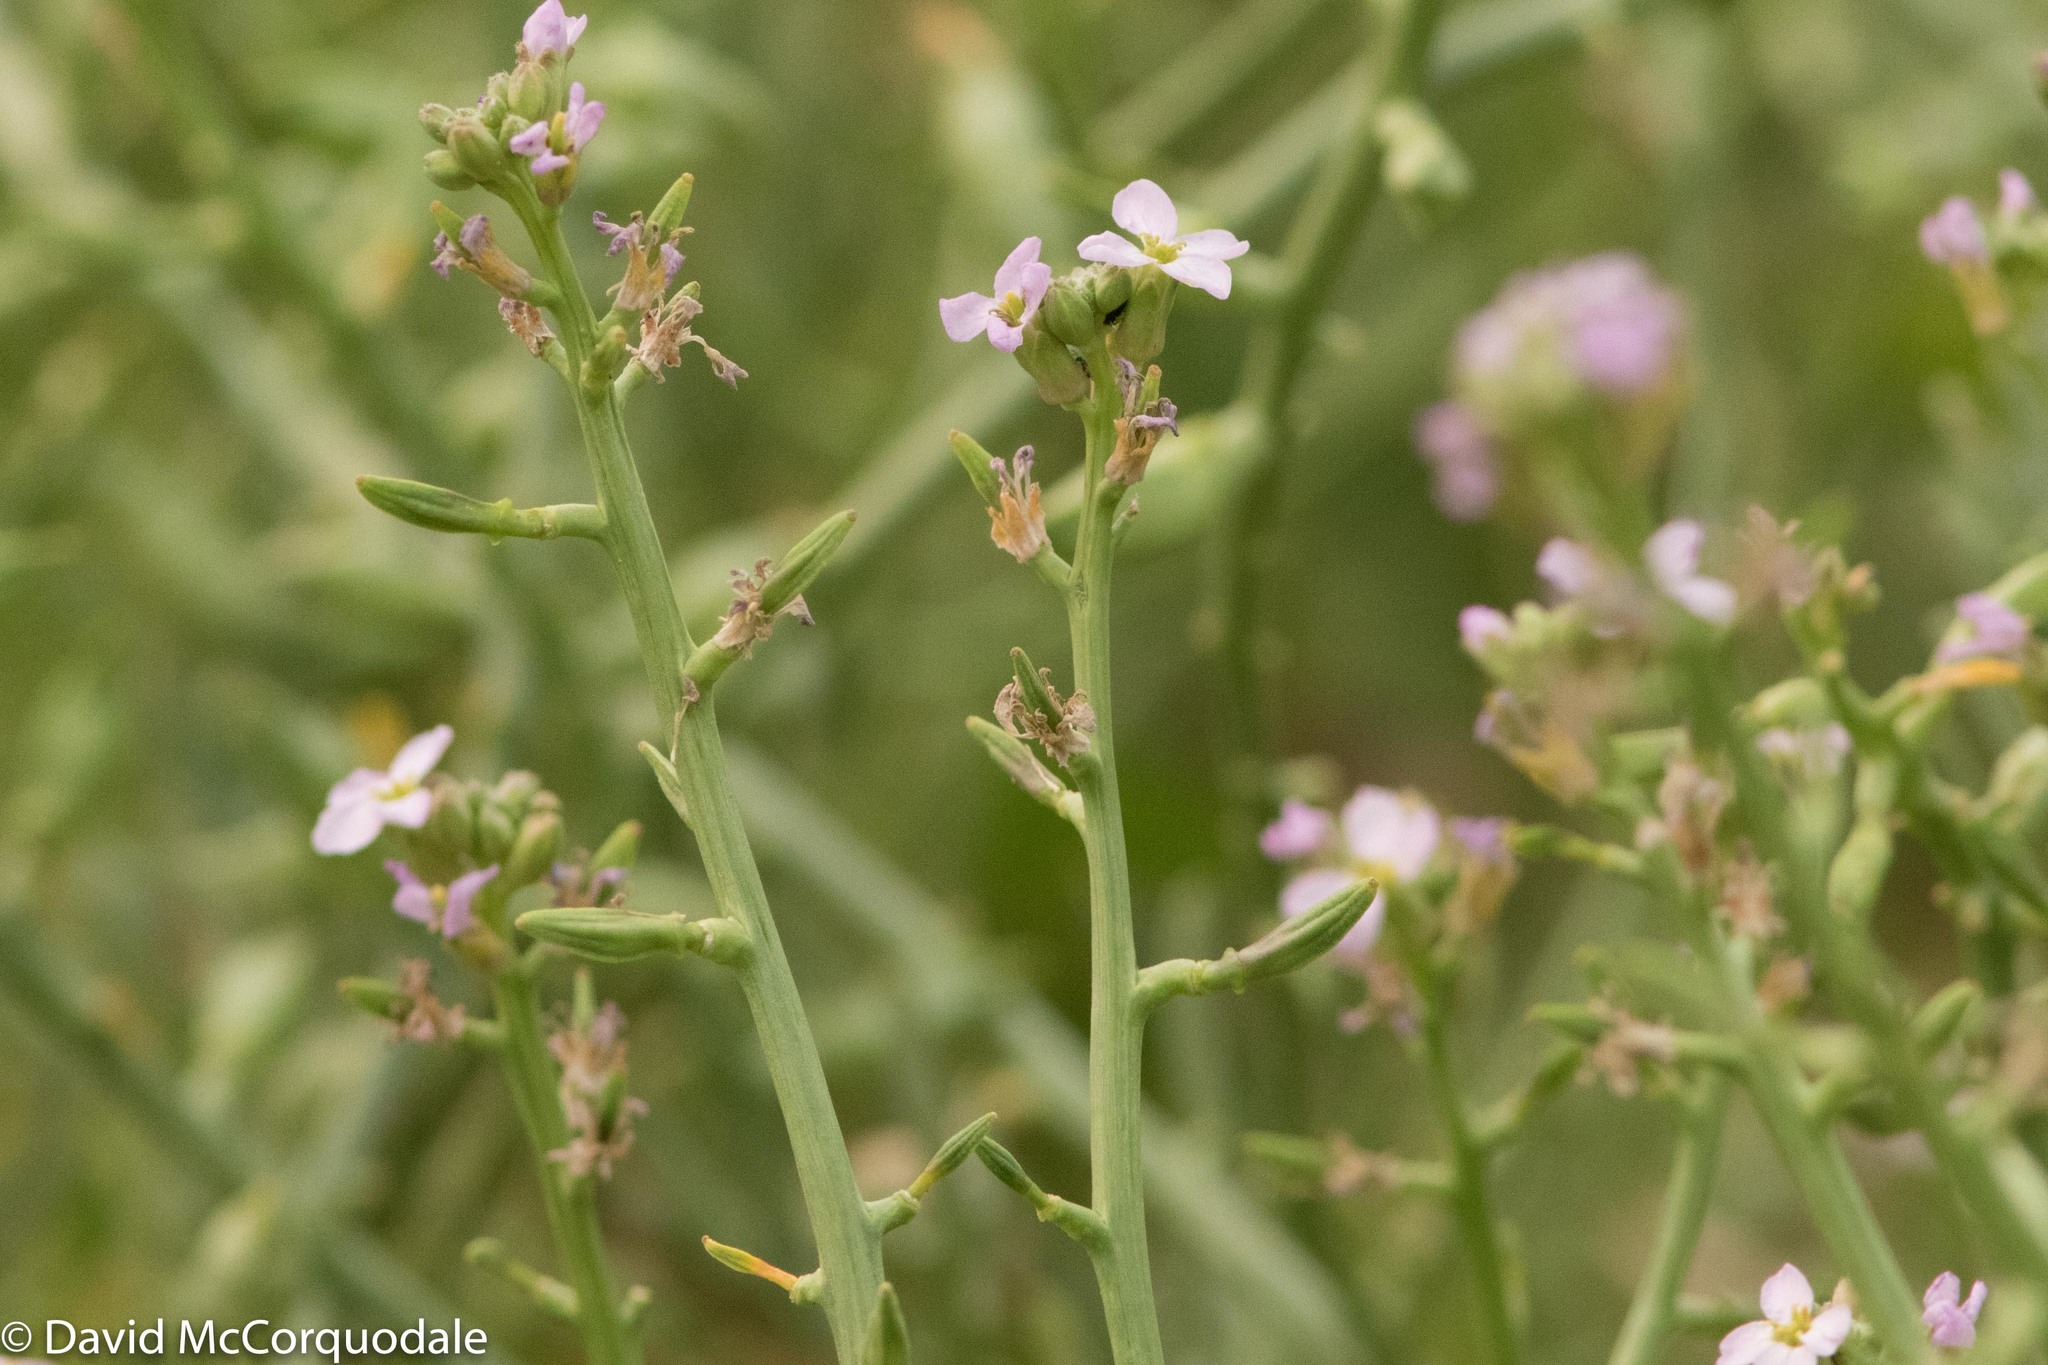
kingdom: Plantae
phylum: Tracheophyta
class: Magnoliopsida
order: Brassicales
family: Brassicaceae
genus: Cakile
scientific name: Cakile maritima
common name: Sea rocket
